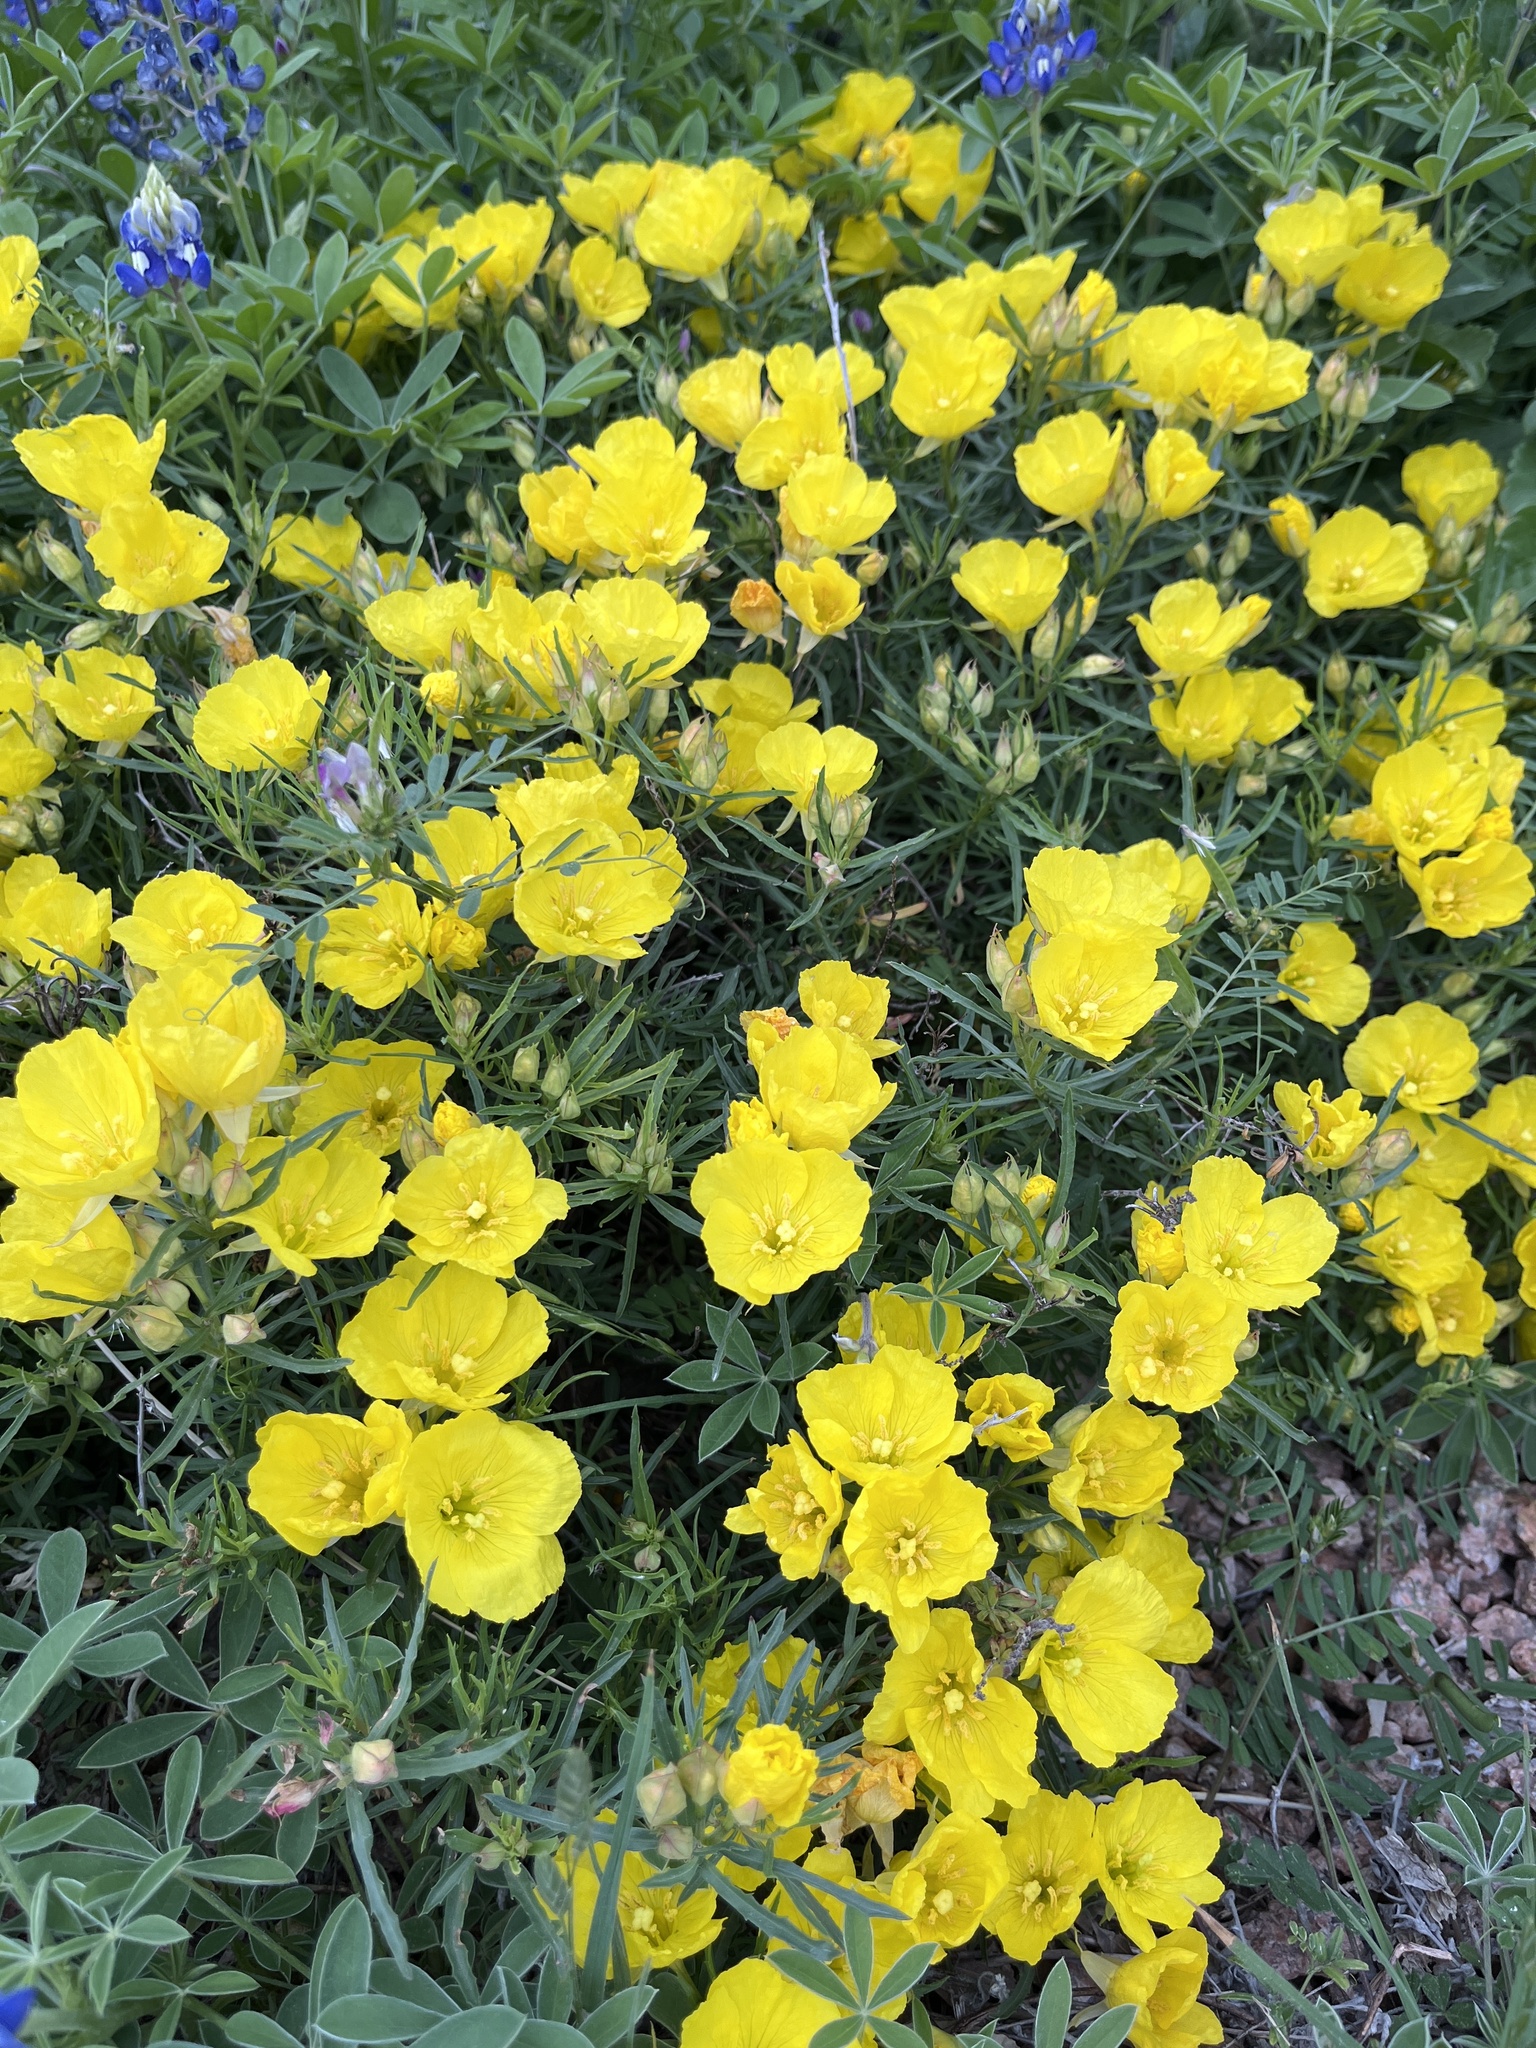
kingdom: Plantae
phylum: Tracheophyta
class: Magnoliopsida
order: Myrtales
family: Onagraceae
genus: Oenothera
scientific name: Oenothera
